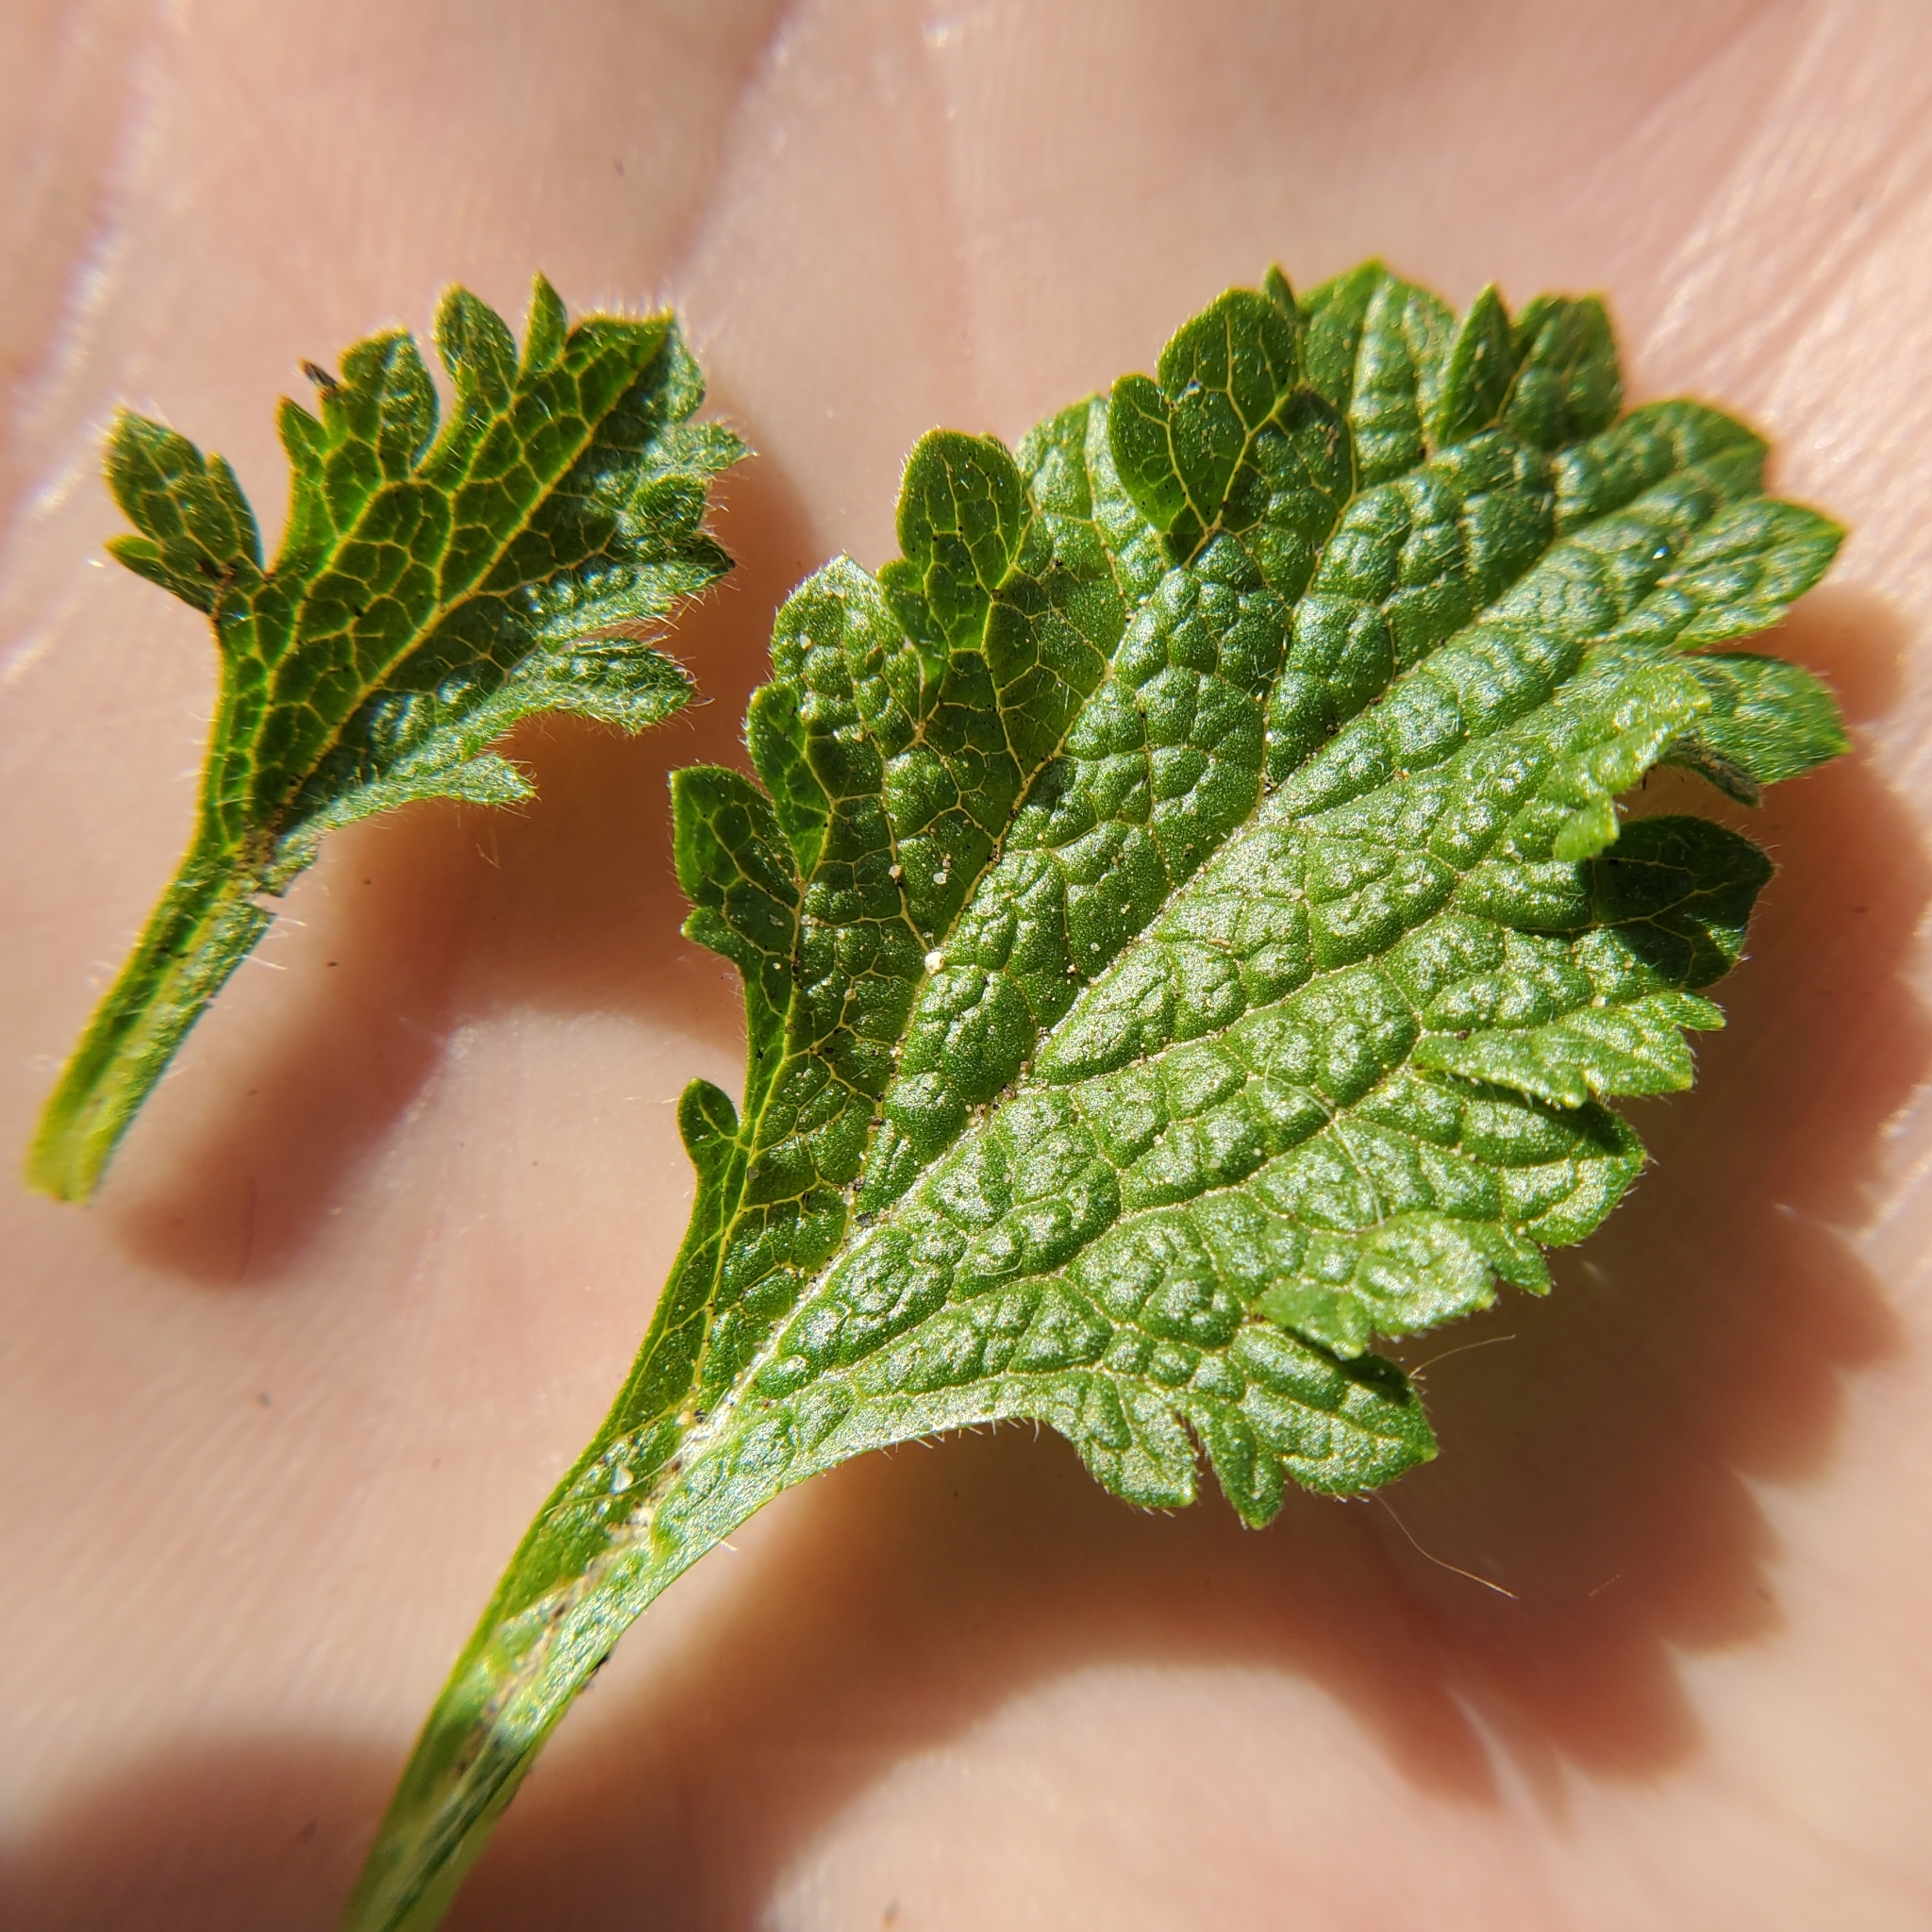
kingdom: Plantae
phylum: Tracheophyta
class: Magnoliopsida
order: Lamiales
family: Verbenaceae
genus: Verbena
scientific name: Verbena lasiostachys
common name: Vervain
